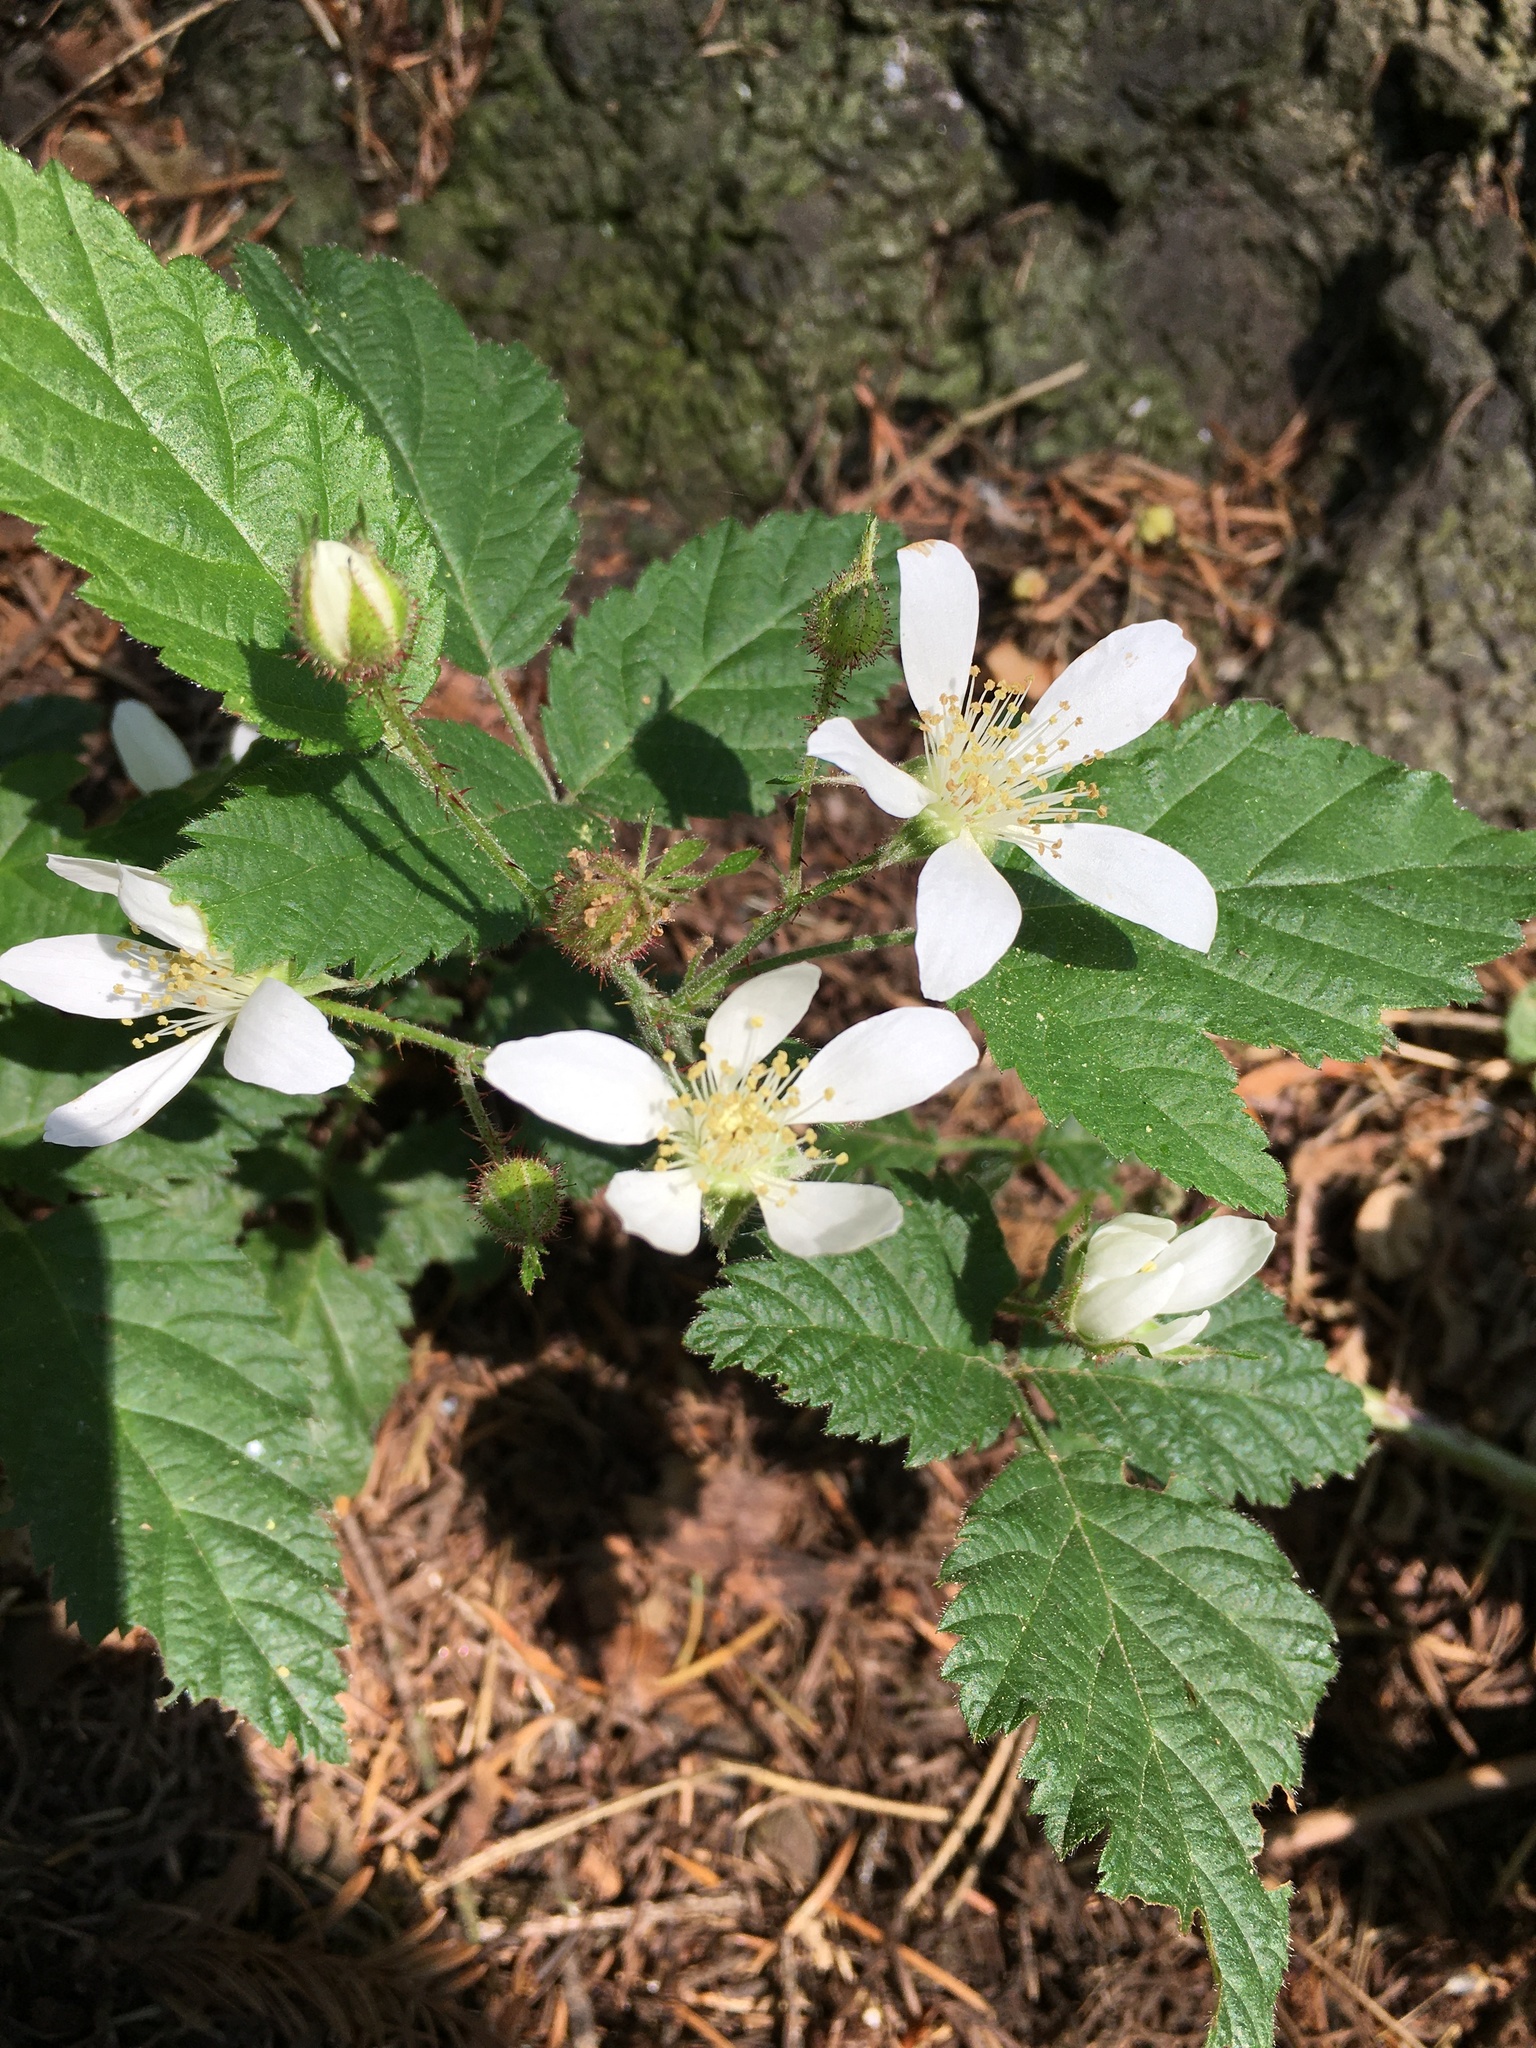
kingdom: Plantae
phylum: Tracheophyta
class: Magnoliopsida
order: Rosales
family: Rosaceae
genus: Rubus
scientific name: Rubus ursinus
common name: Pacific blackberry
